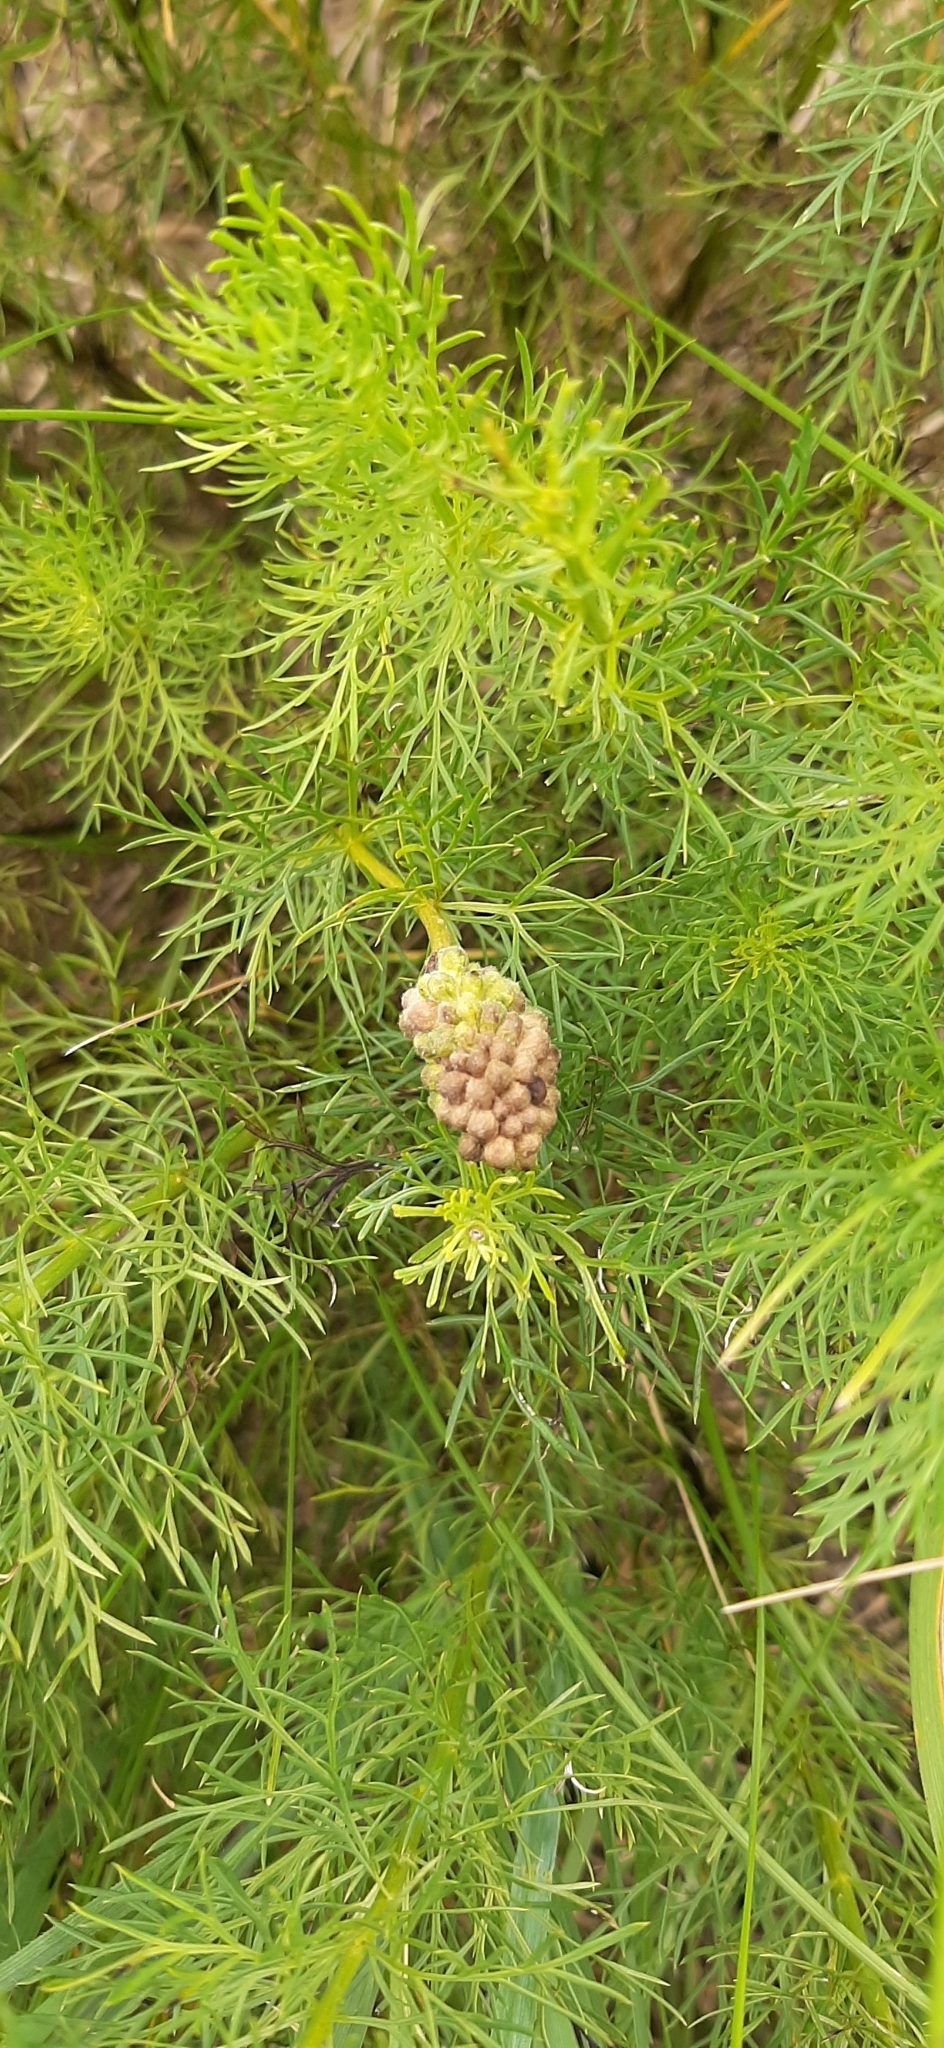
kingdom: Plantae
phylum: Tracheophyta
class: Magnoliopsida
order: Ranunculales
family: Ranunculaceae
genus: Adonis
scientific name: Adonis vernalis
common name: Yellow pheasants-eye
